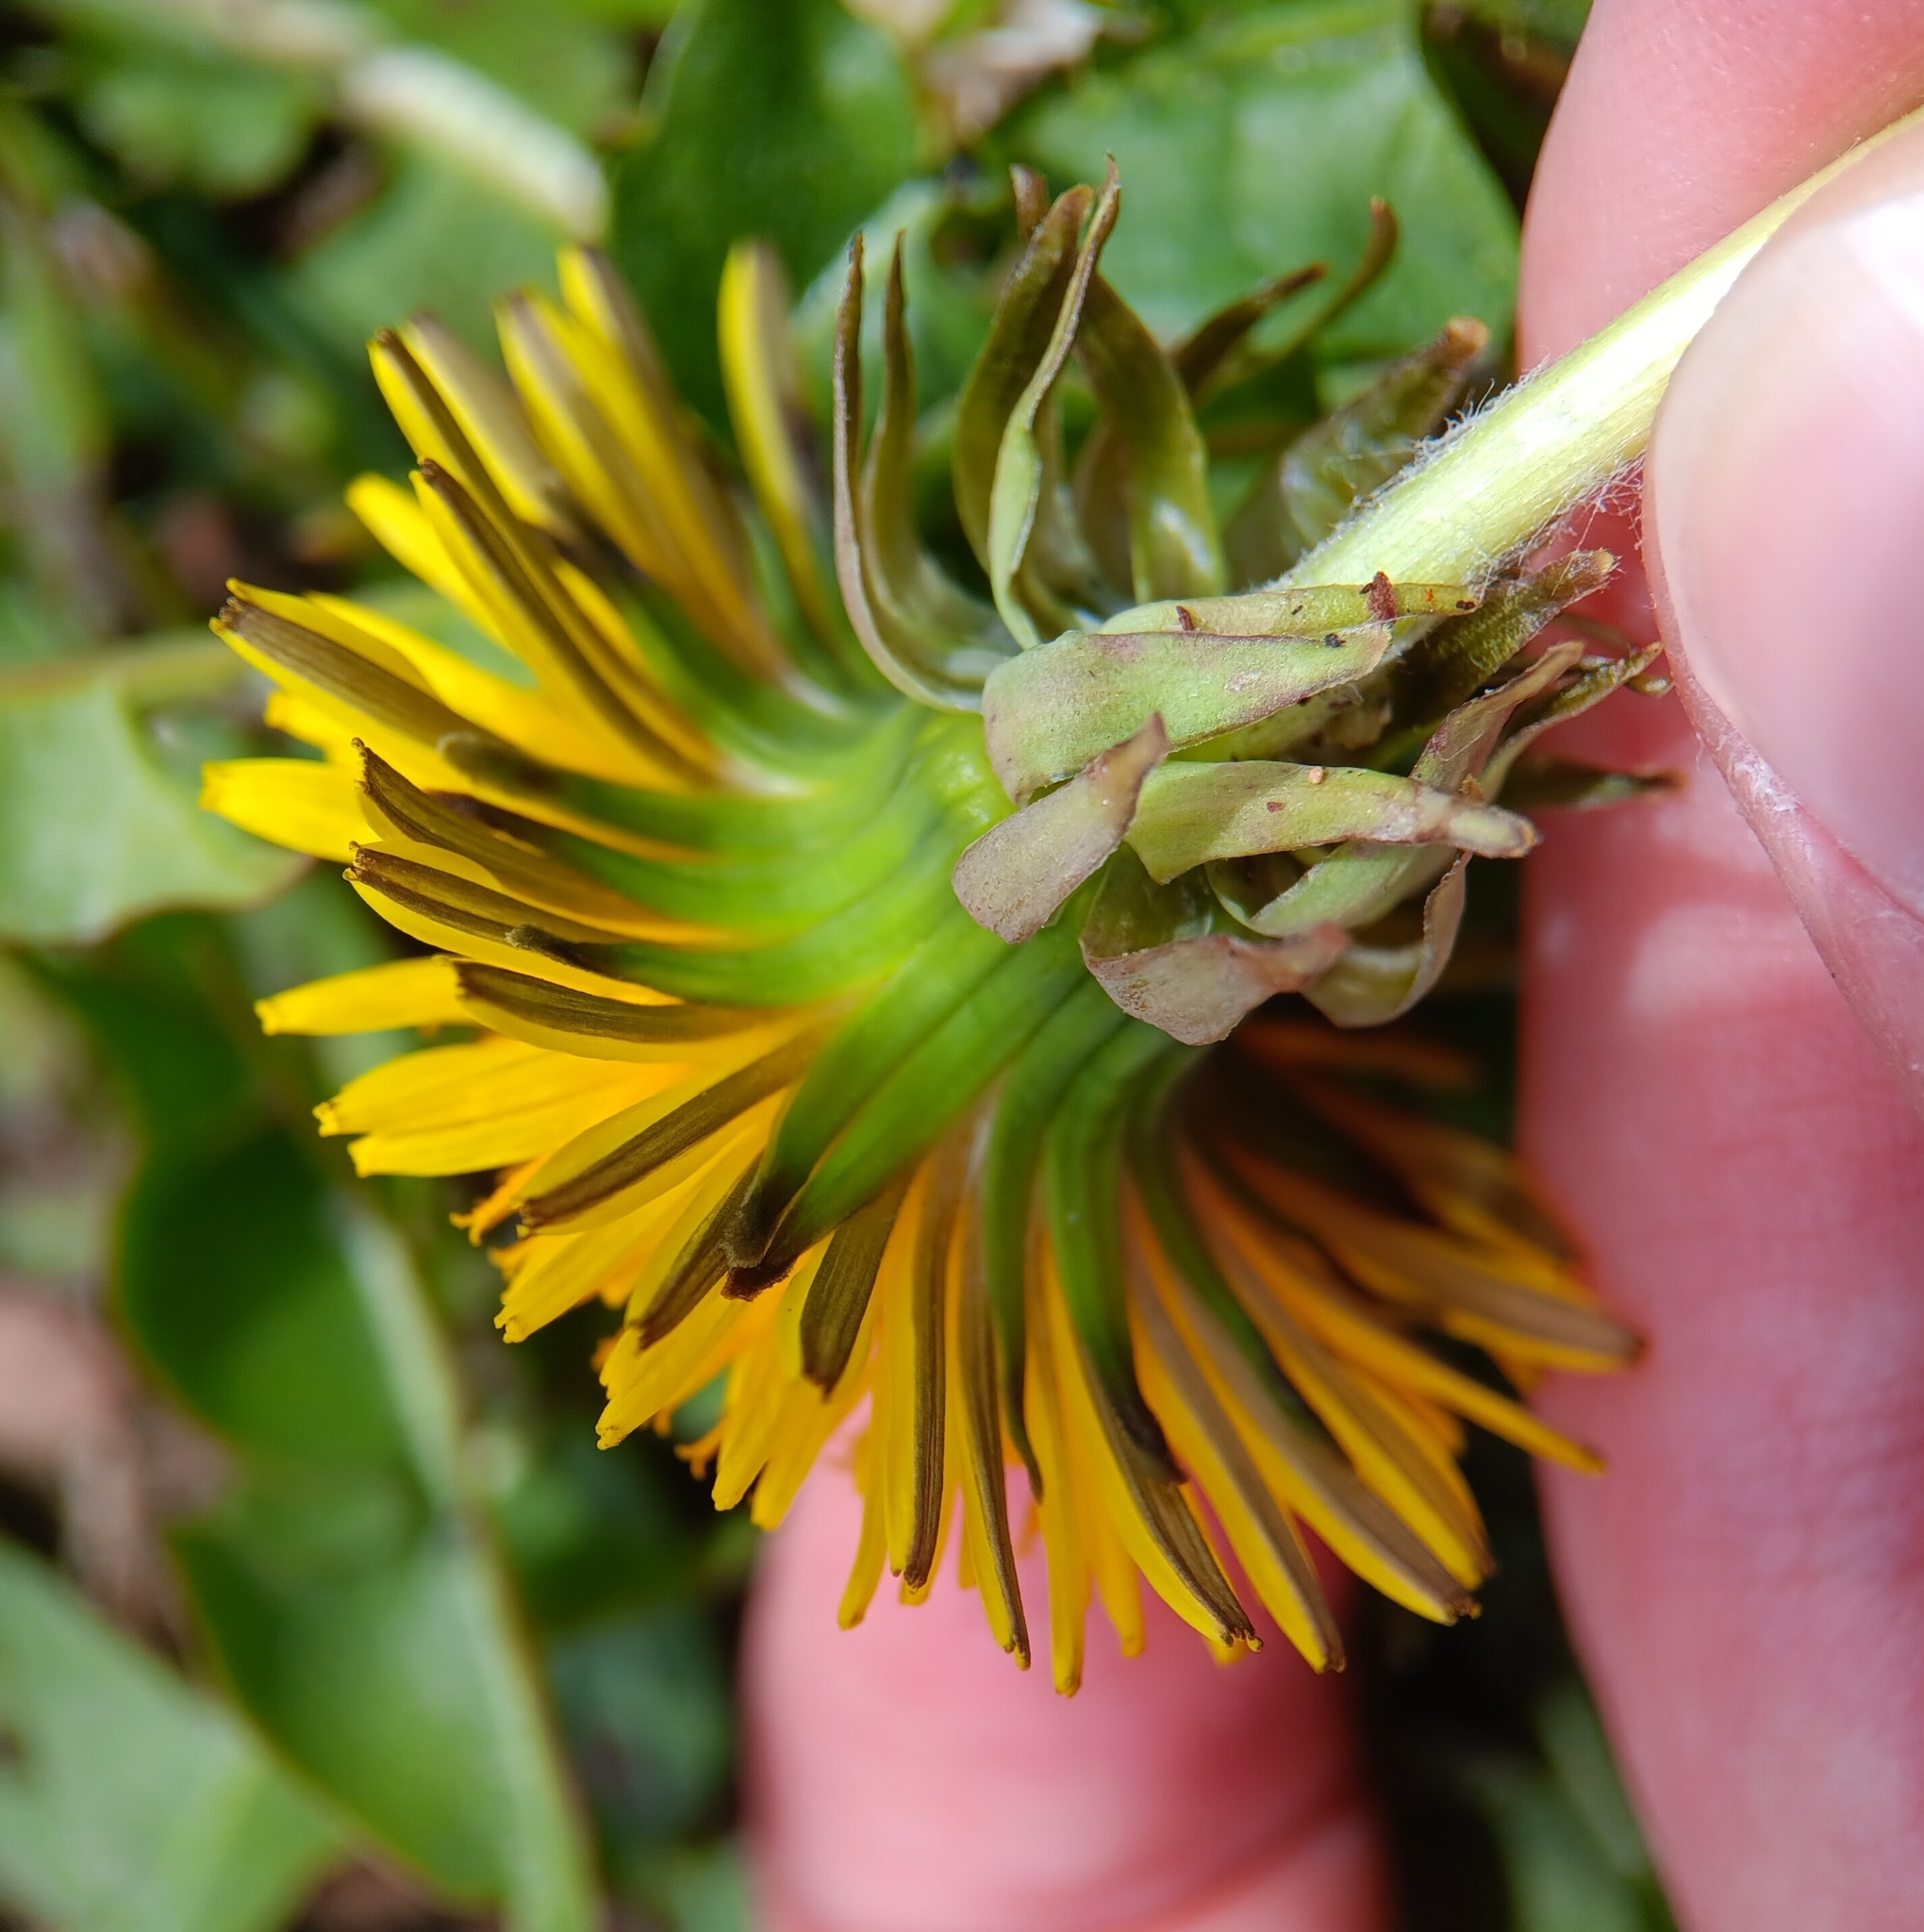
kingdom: Plantae
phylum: Tracheophyta
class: Magnoliopsida
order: Asterales
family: Asteraceae
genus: Taraxacum
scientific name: Taraxacum officinale
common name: Common dandelion
